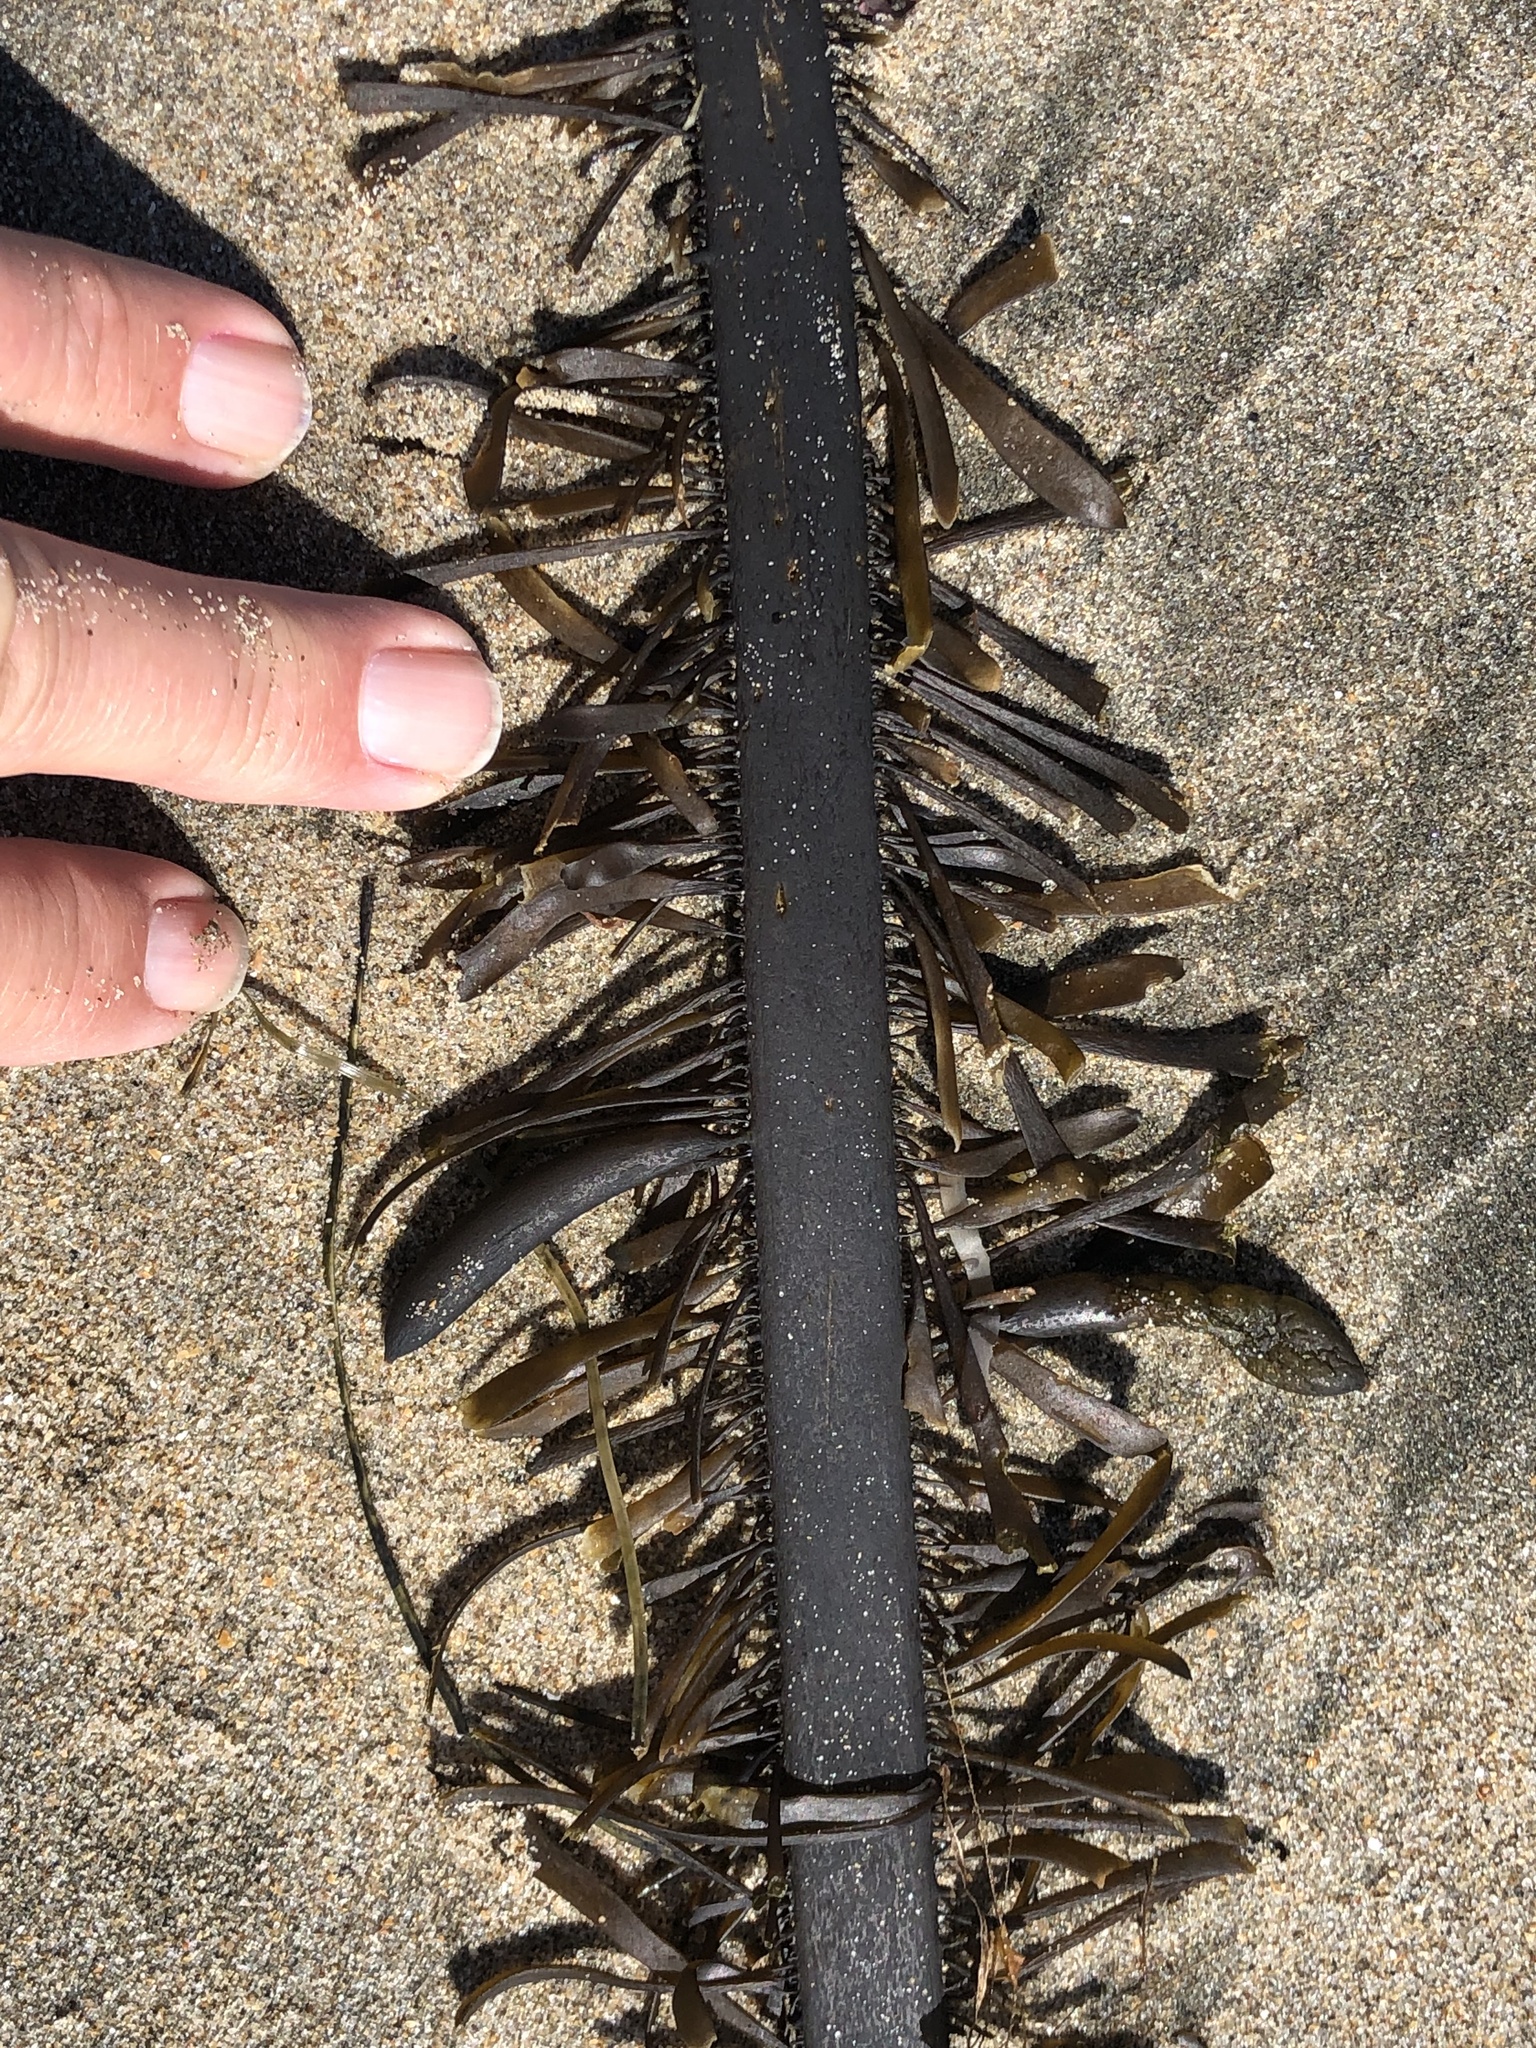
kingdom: Chromista
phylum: Ochrophyta
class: Phaeophyceae
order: Laminariales
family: Lessoniaceae
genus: Egregia
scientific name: Egregia menziesii
